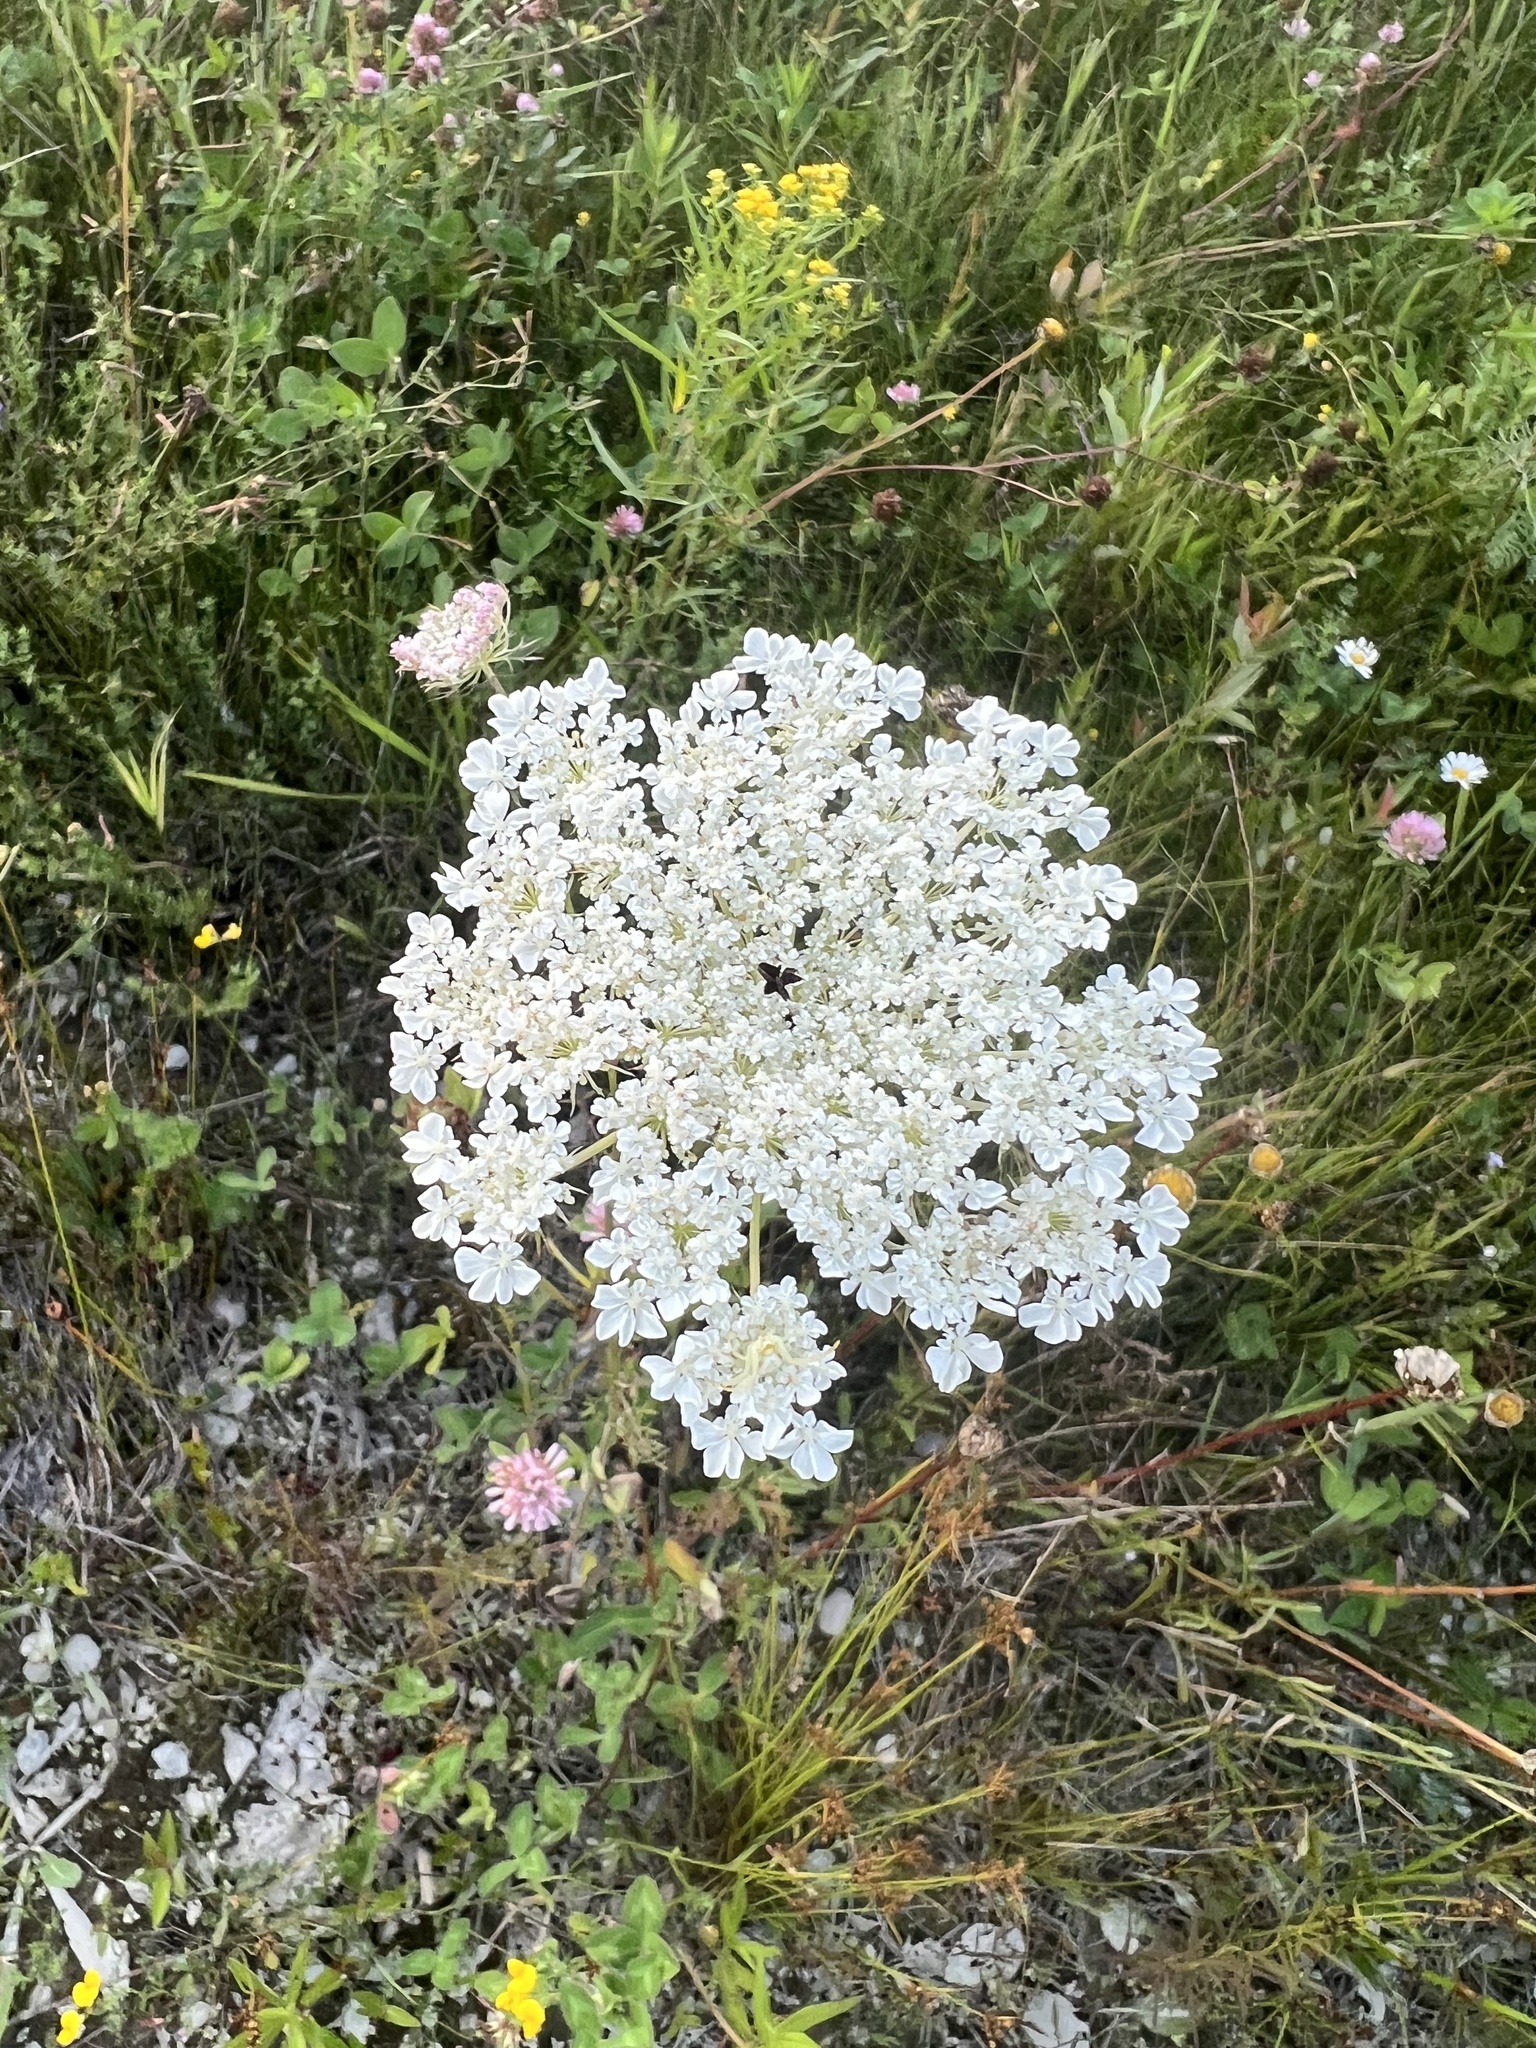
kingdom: Plantae
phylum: Tracheophyta
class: Magnoliopsida
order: Apiales
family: Apiaceae
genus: Daucus
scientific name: Daucus carota
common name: Wild carrot
